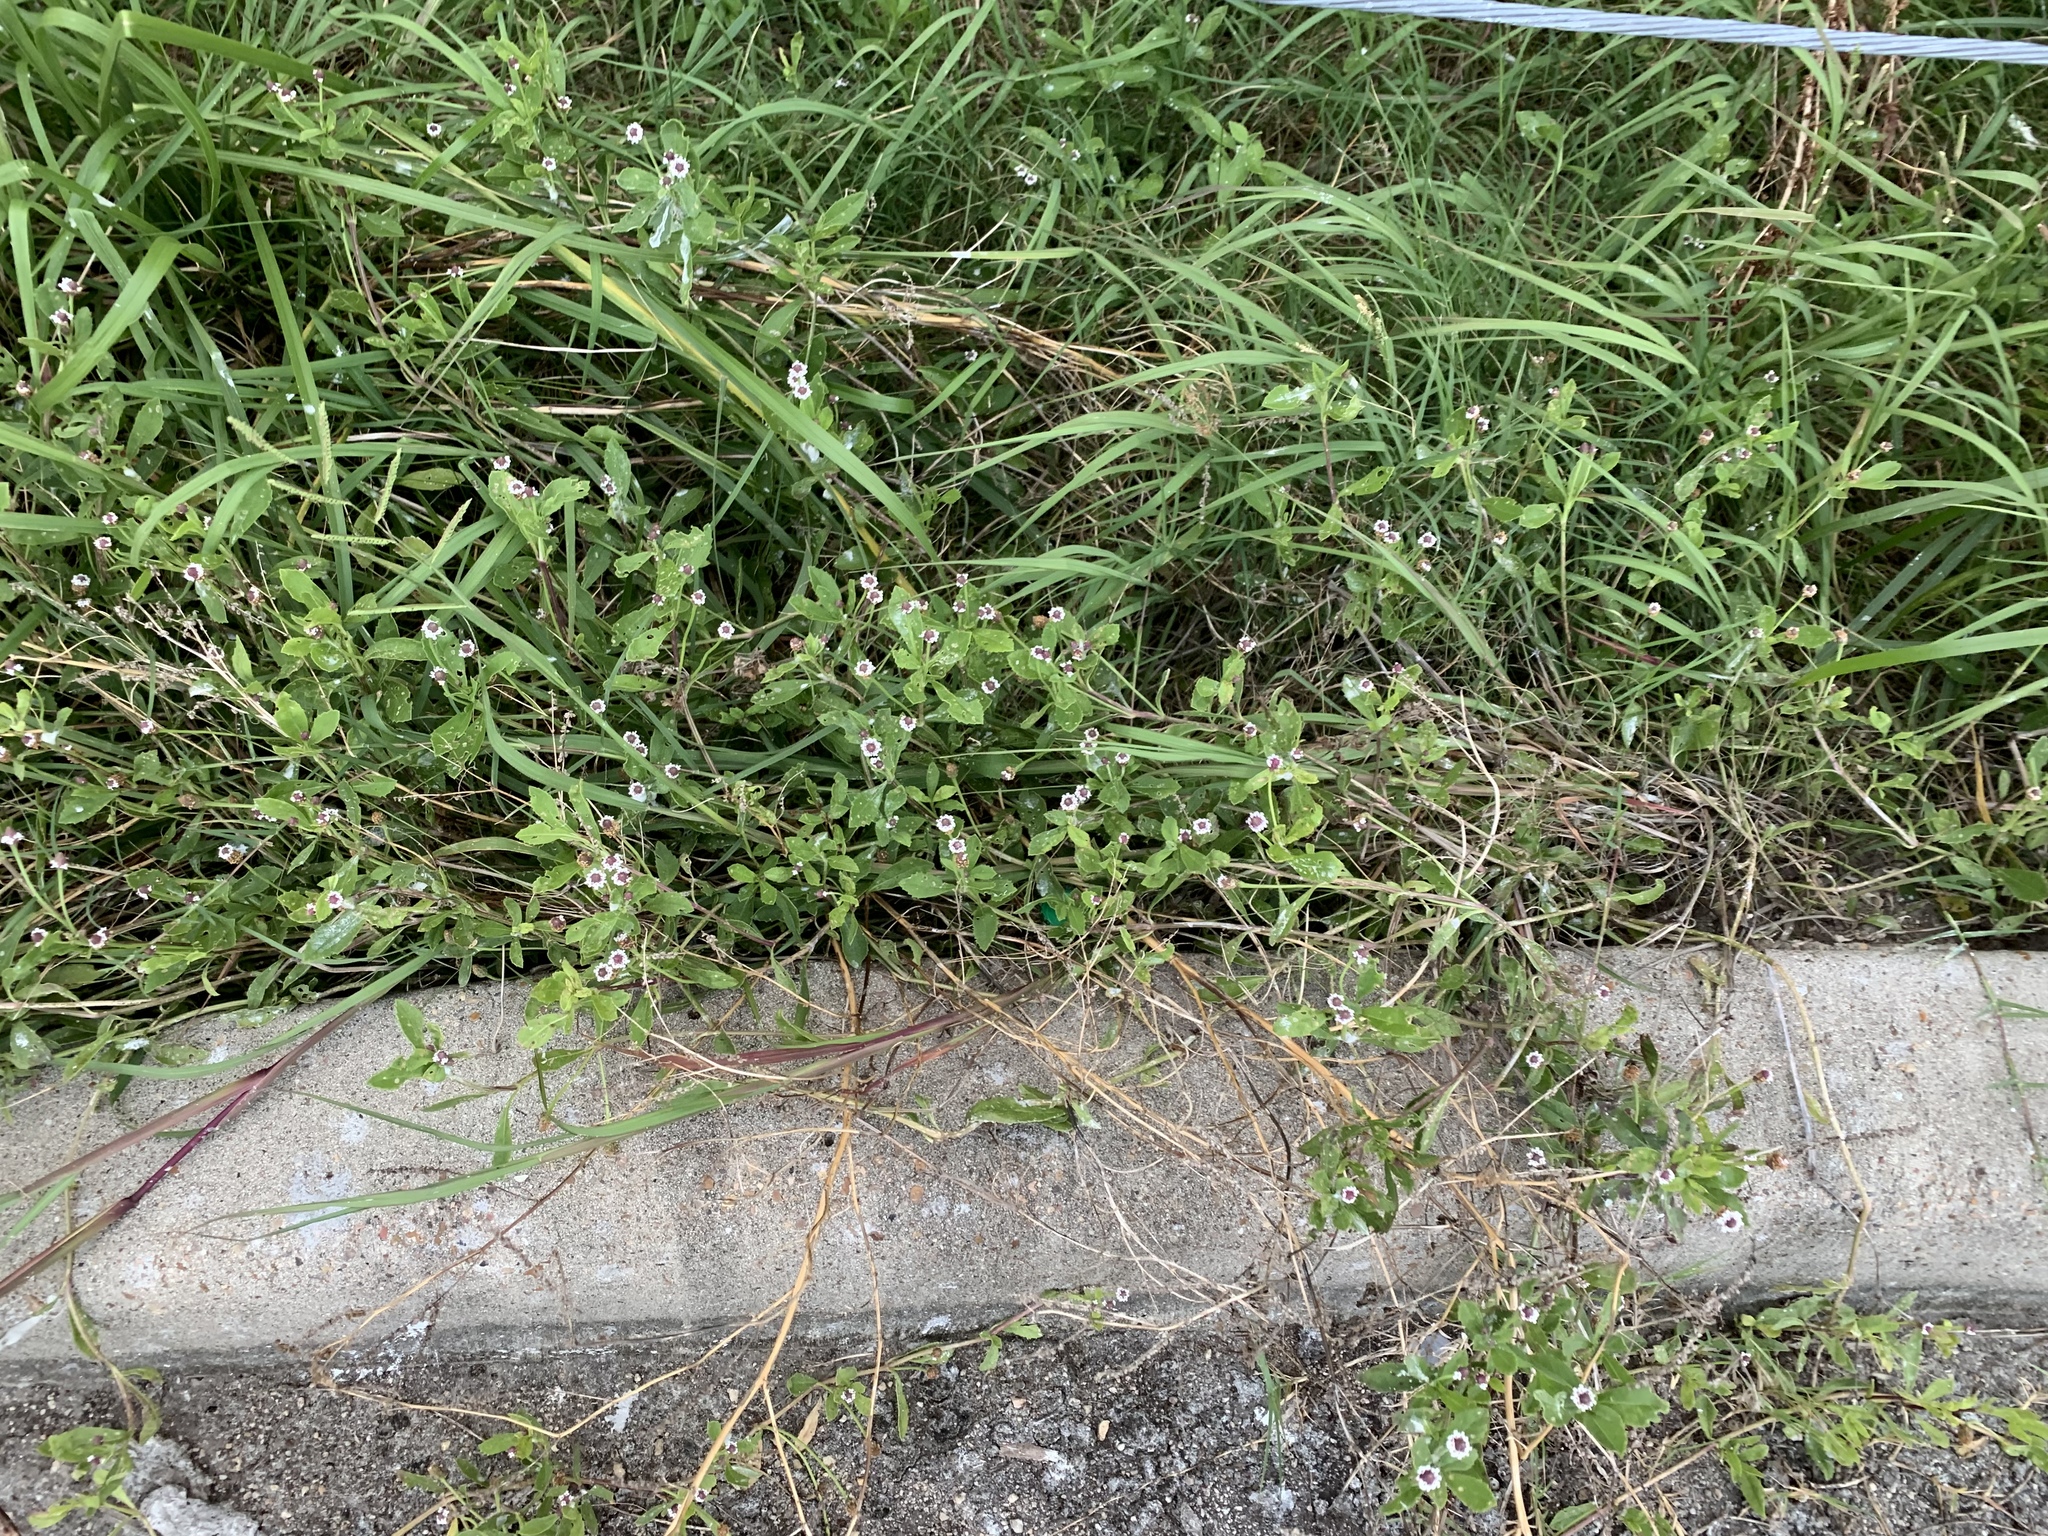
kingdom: Plantae
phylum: Tracheophyta
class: Magnoliopsida
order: Lamiales
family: Verbenaceae
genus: Phyla
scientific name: Phyla nodiflora
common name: Frogfruit
